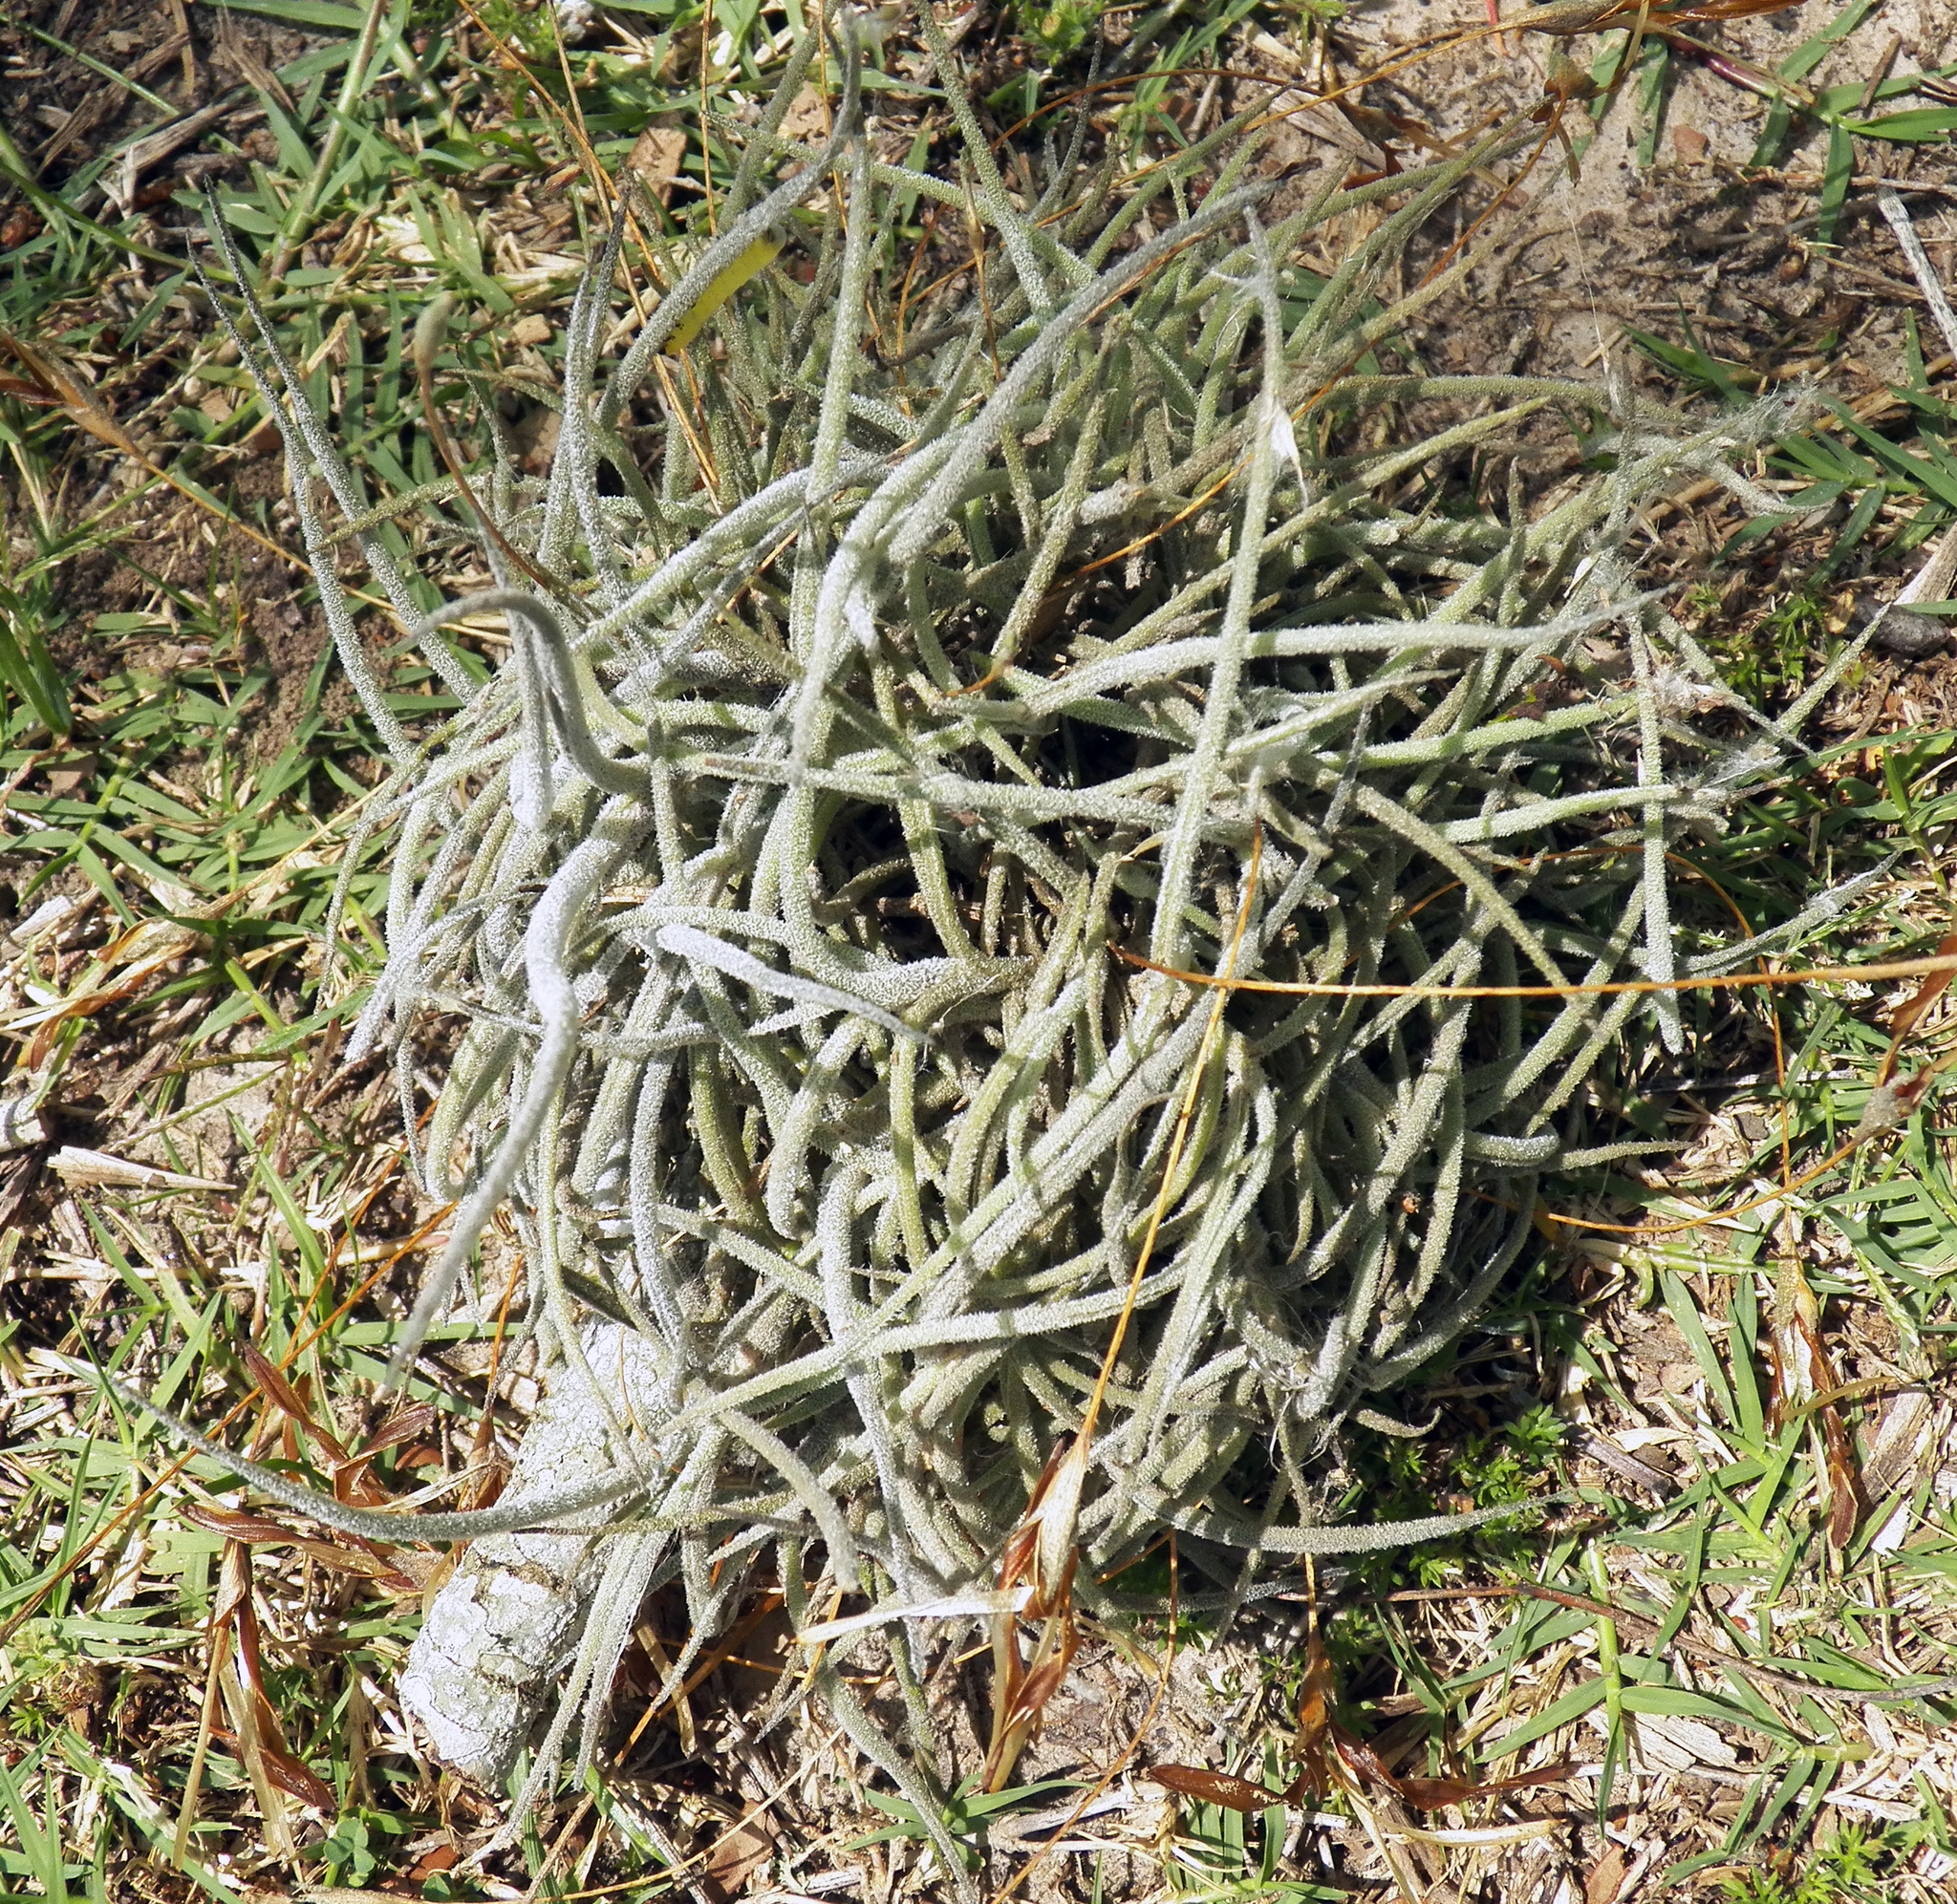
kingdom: Plantae
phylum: Tracheophyta
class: Liliopsida
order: Poales
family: Bromeliaceae
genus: Tillandsia
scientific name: Tillandsia recurvata
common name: Small ballmoss
